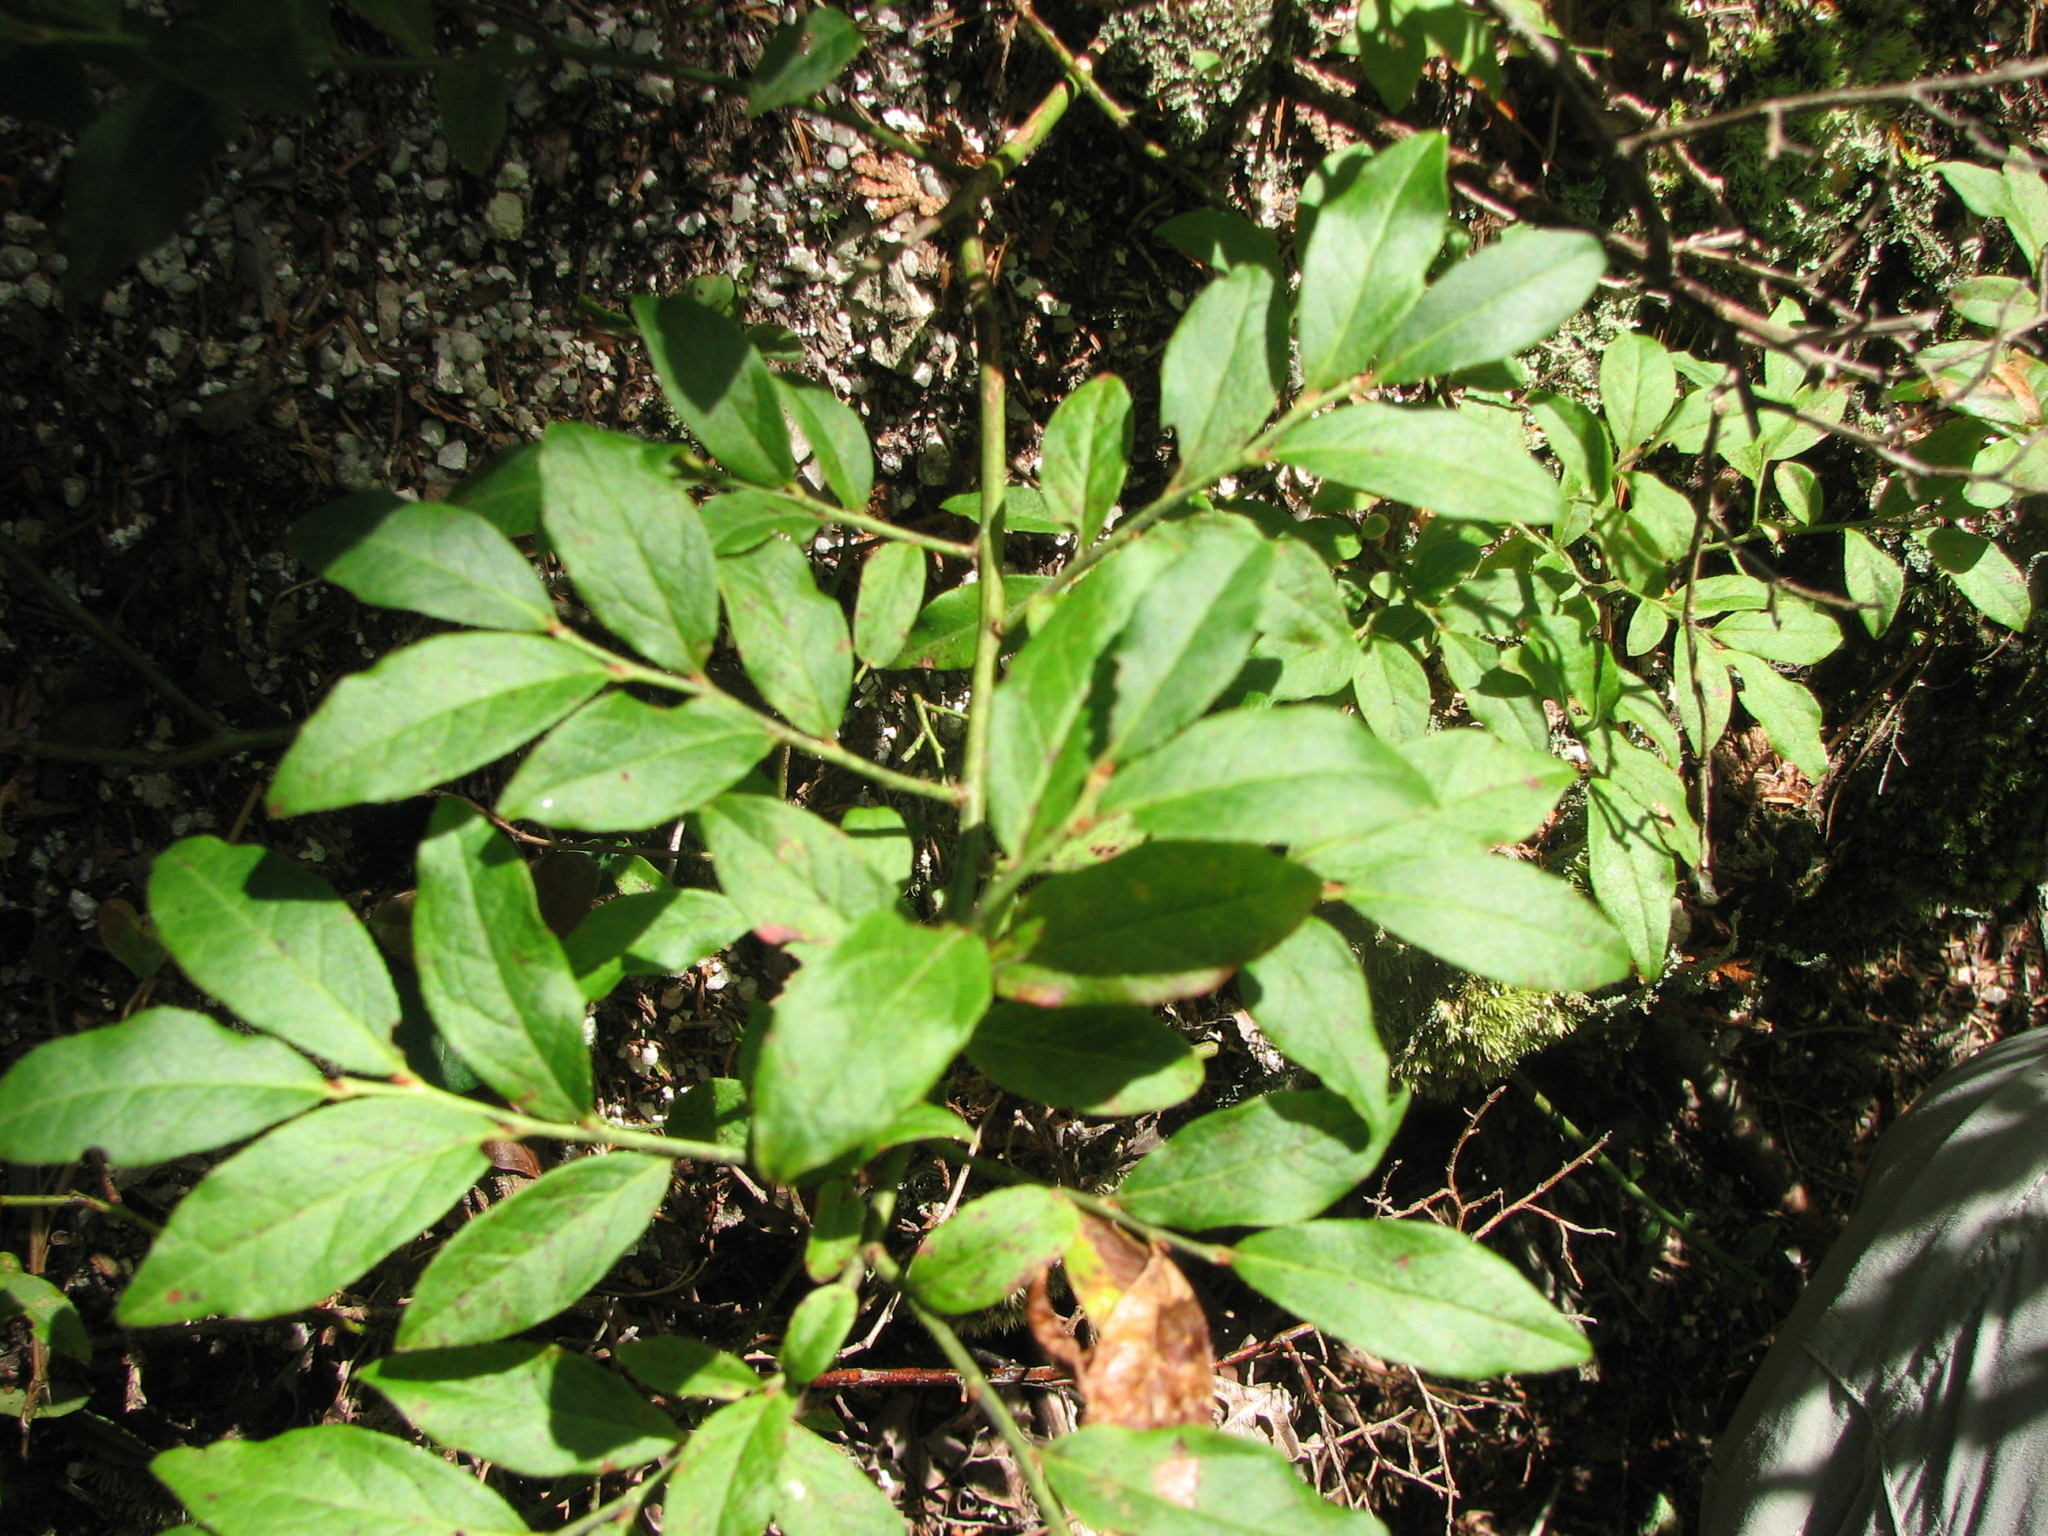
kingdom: Plantae
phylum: Tracheophyta
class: Magnoliopsida
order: Ericales
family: Ericaceae
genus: Vaccinium
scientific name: Vaccinium angustifolium
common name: Early lowbush blueberry
